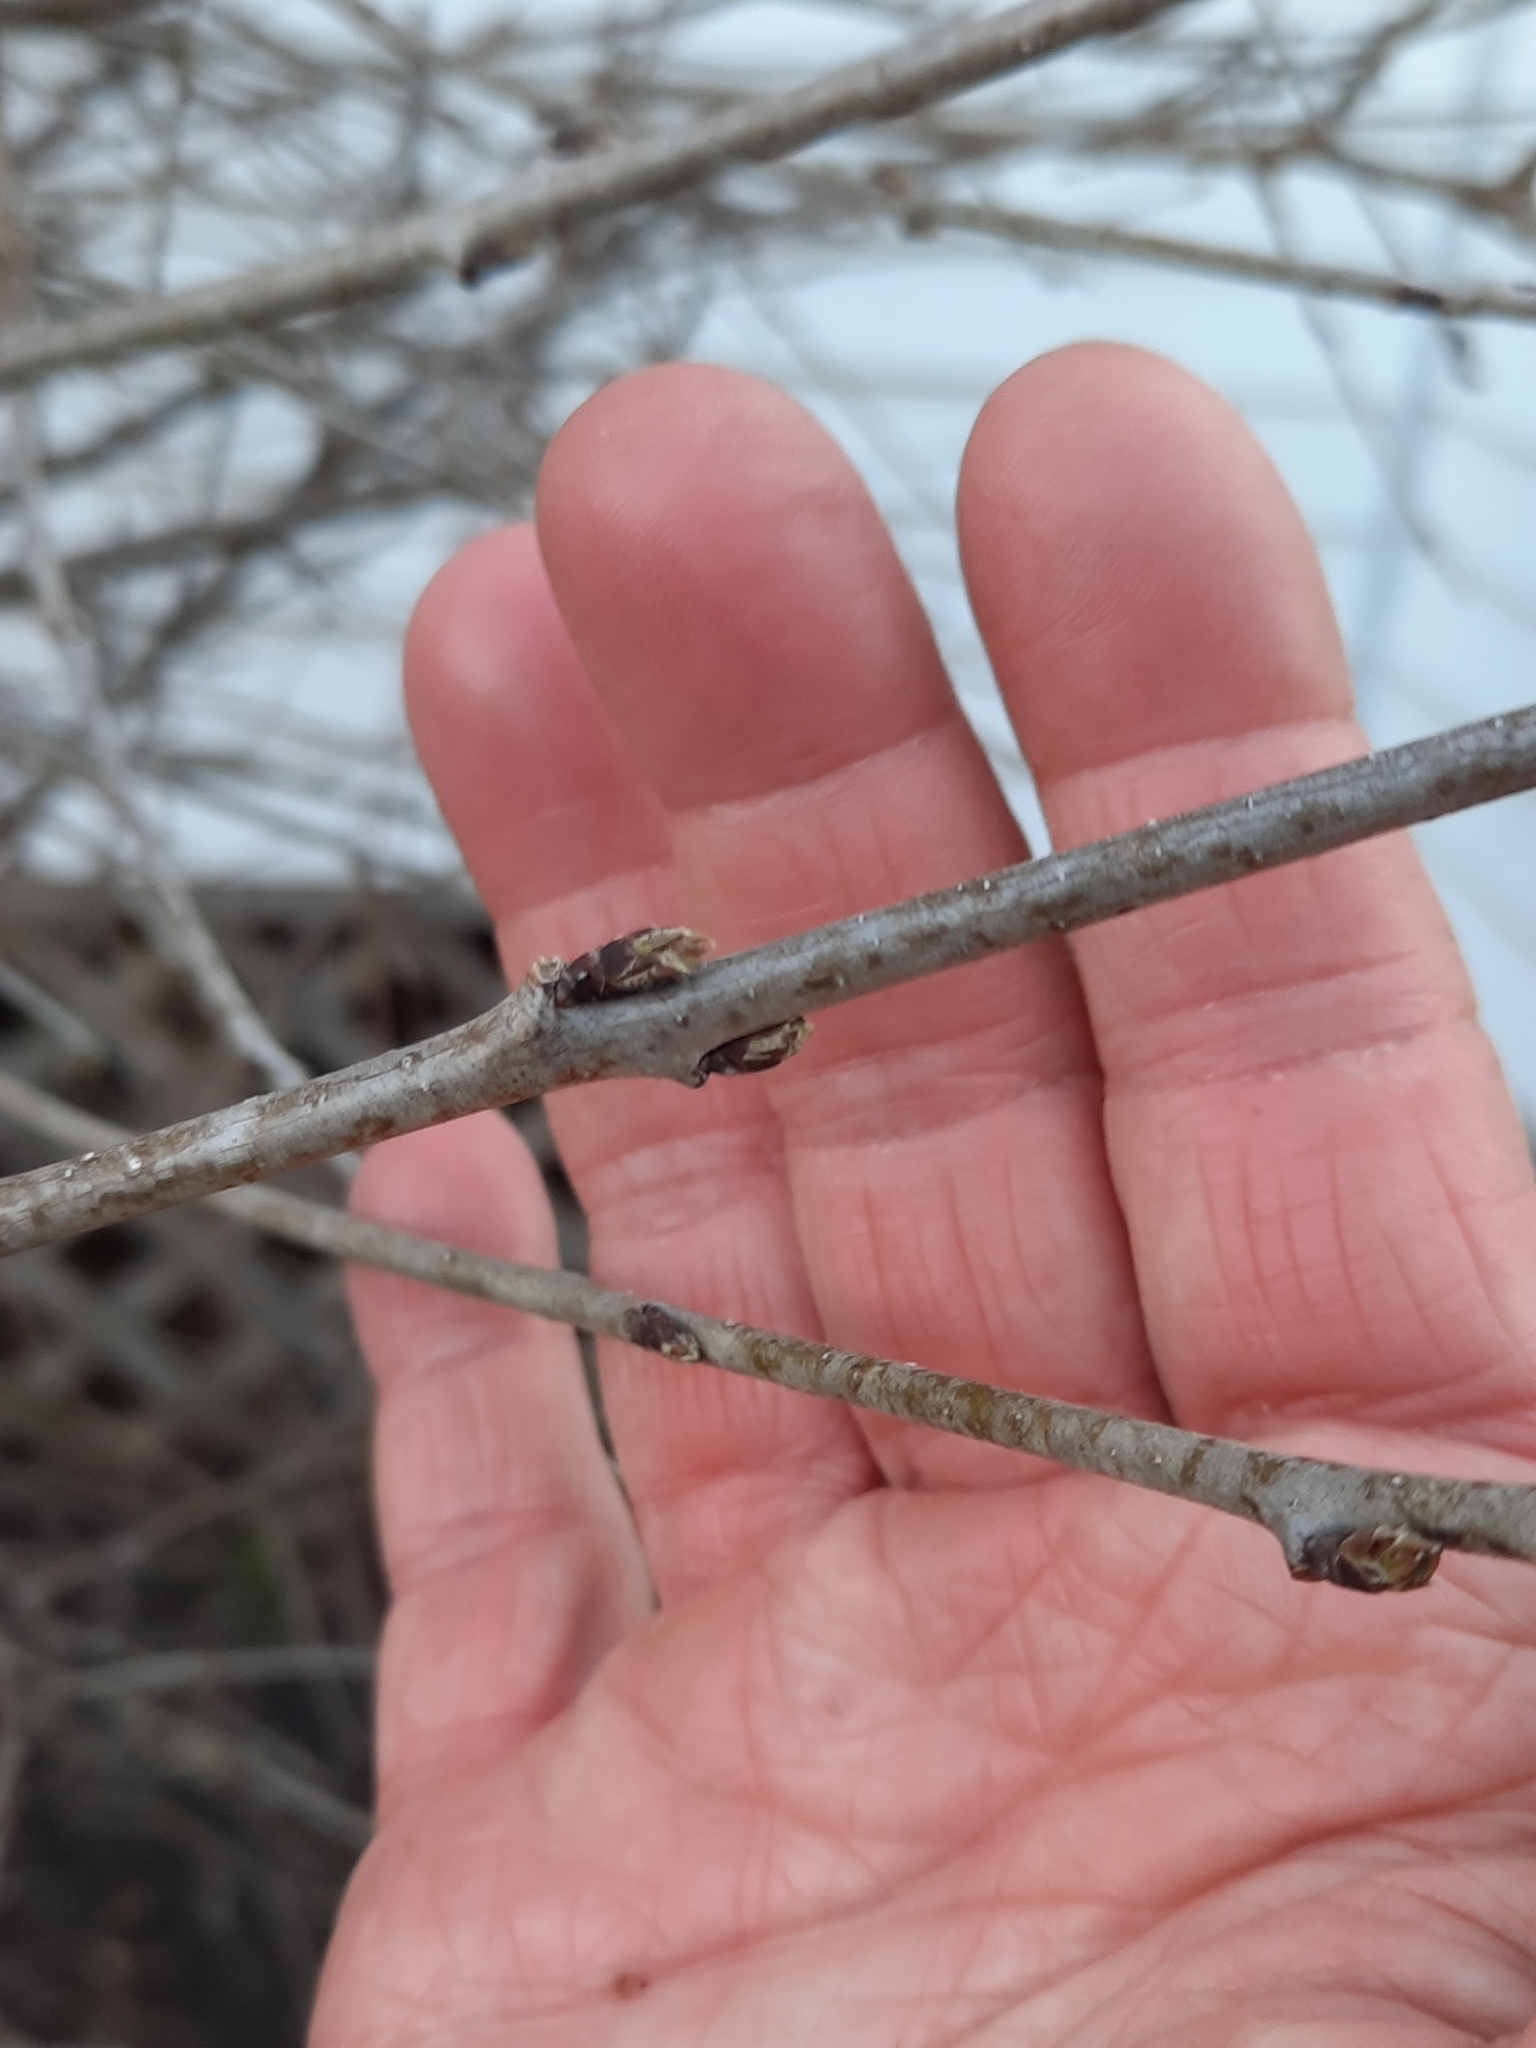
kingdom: Plantae
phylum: Tracheophyta
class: Magnoliopsida
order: Rosales
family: Rhamnaceae
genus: Rhamnus
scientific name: Rhamnus cathartica
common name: Common buckthorn
